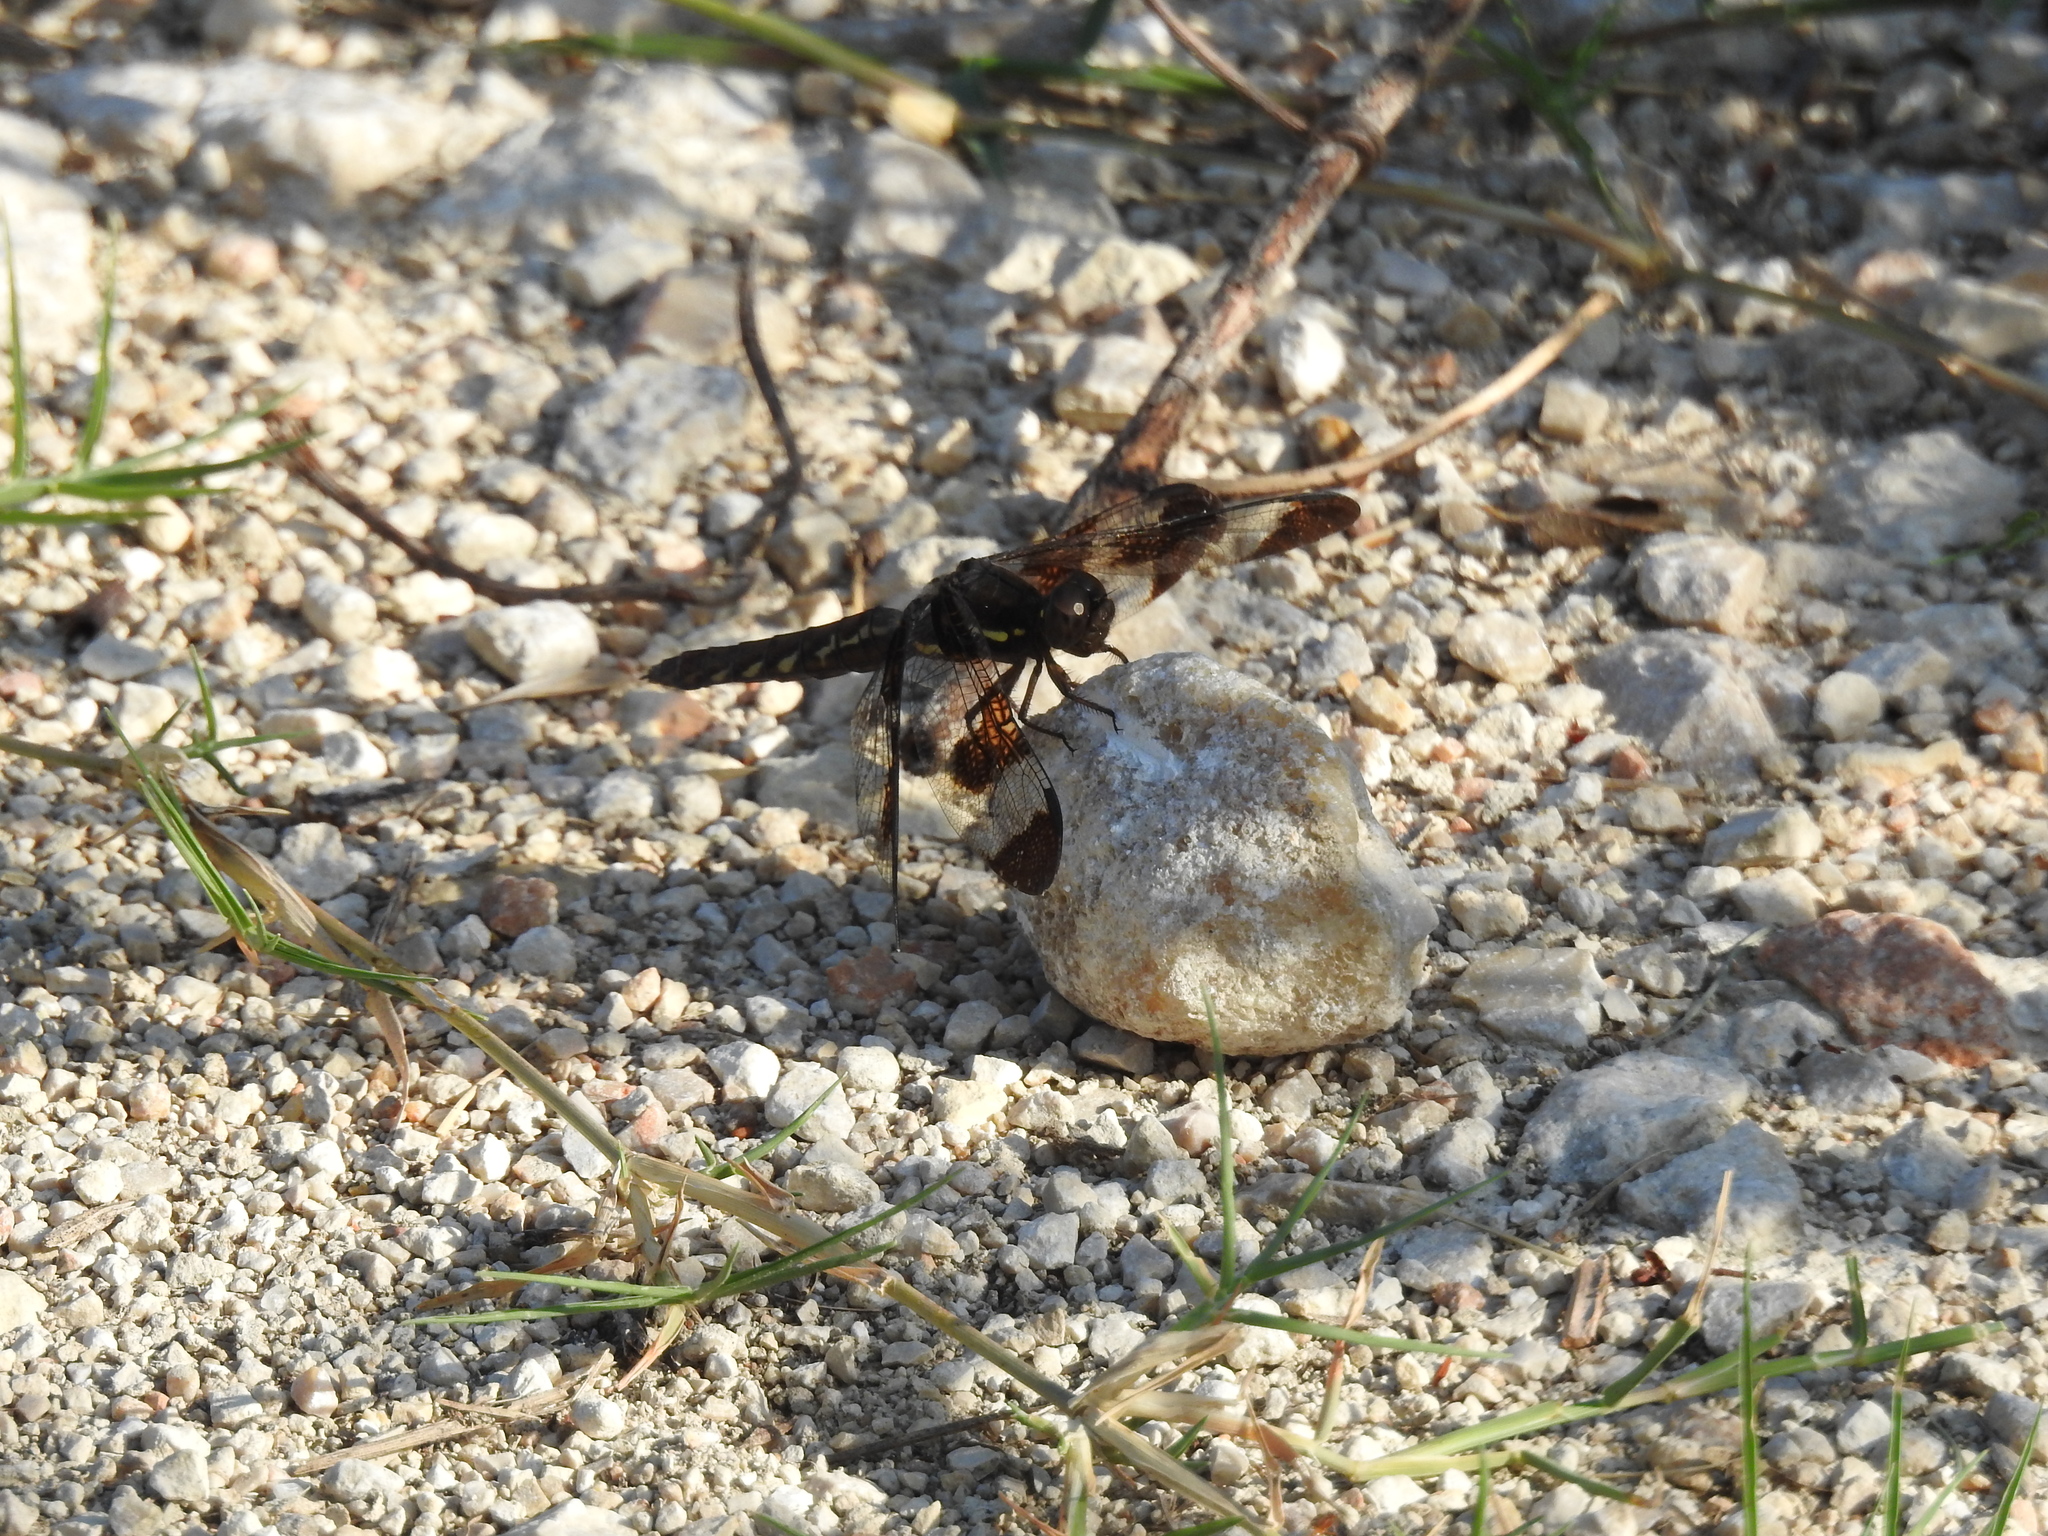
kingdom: Animalia
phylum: Arthropoda
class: Insecta
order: Odonata
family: Libellulidae
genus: Plathemis
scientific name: Plathemis lydia
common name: Common whitetail
